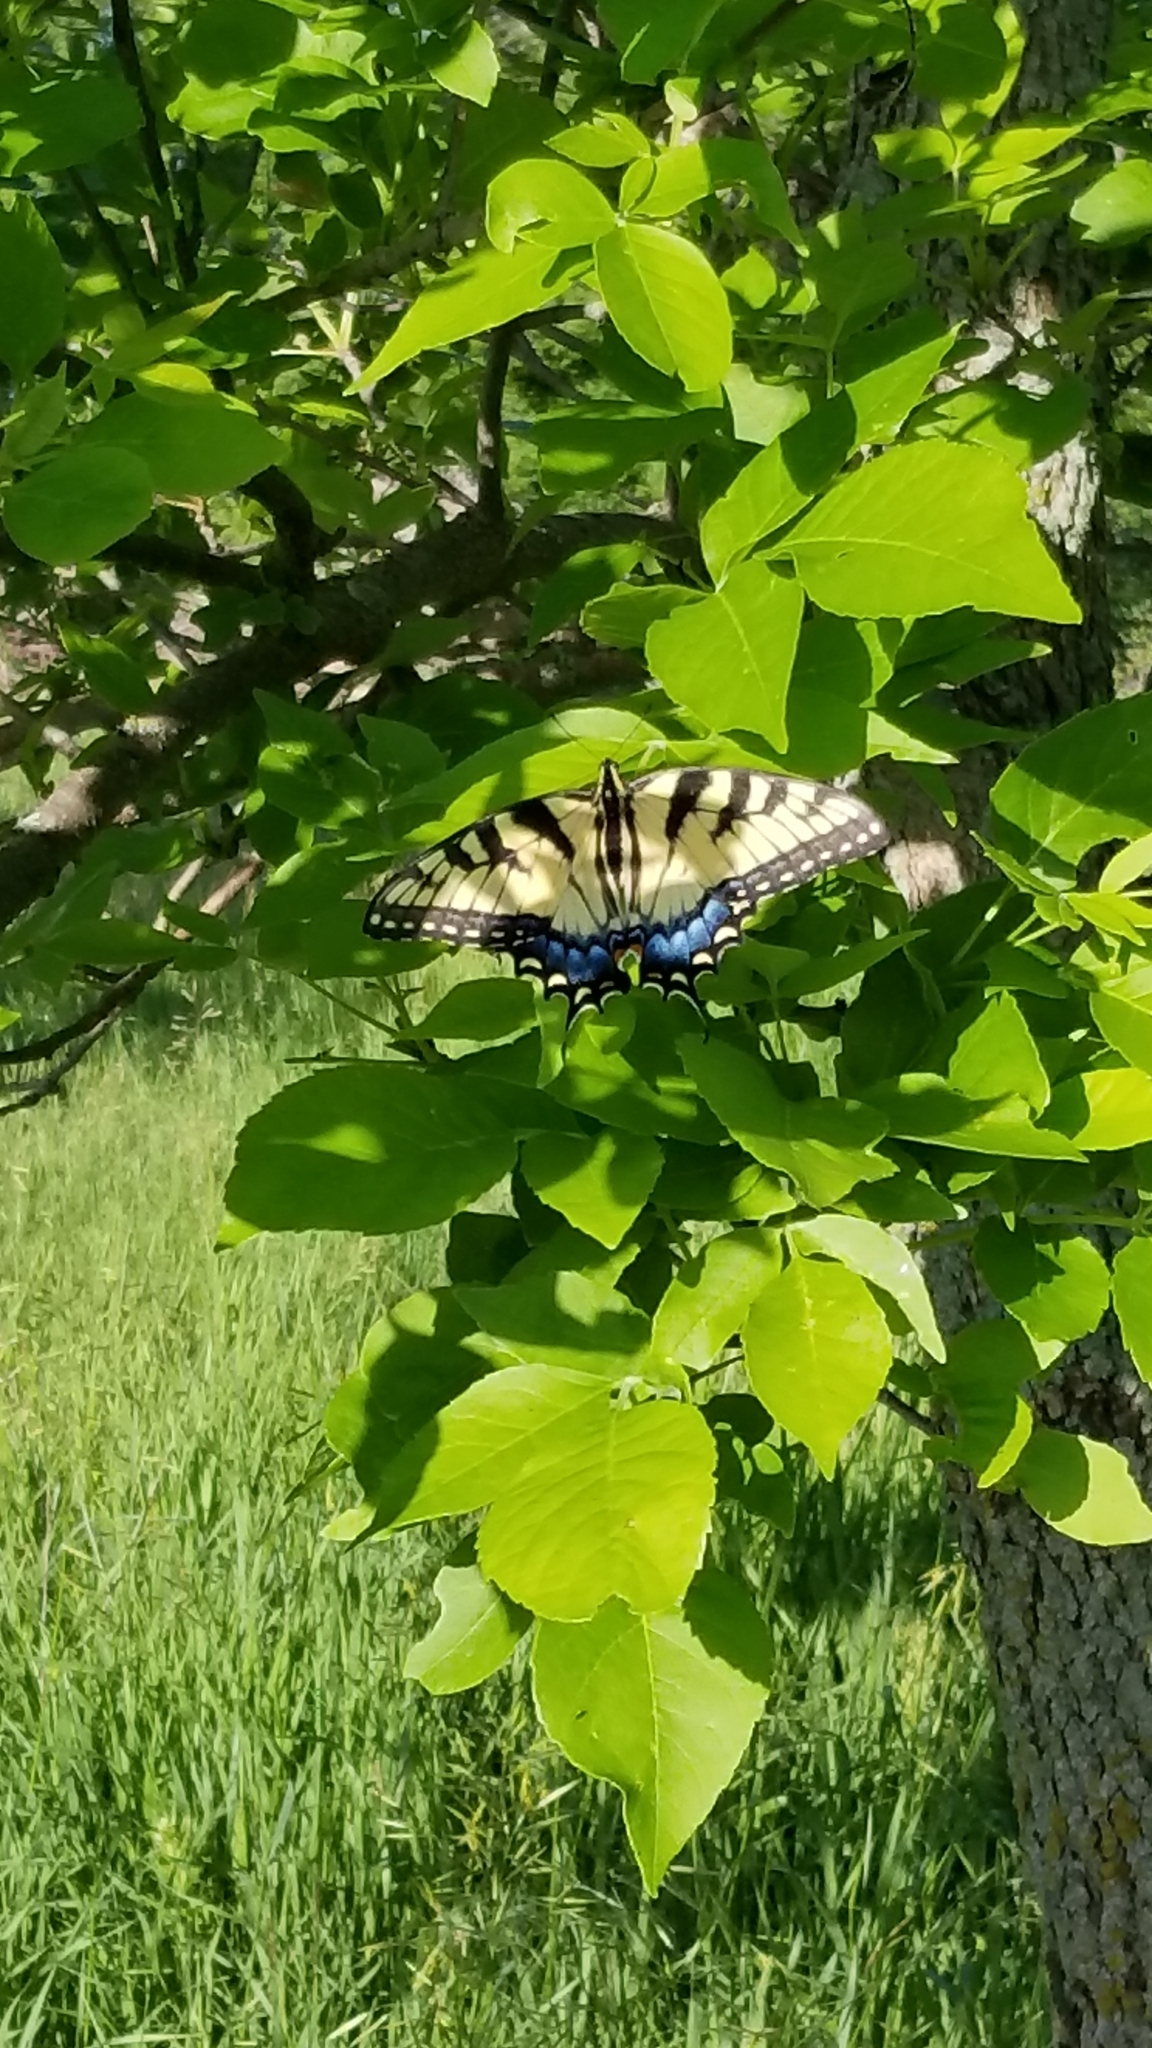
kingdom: Animalia
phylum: Arthropoda
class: Insecta
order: Lepidoptera
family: Papilionidae
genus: Papilio
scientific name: Papilio glaucus
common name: Tiger swallowtail
